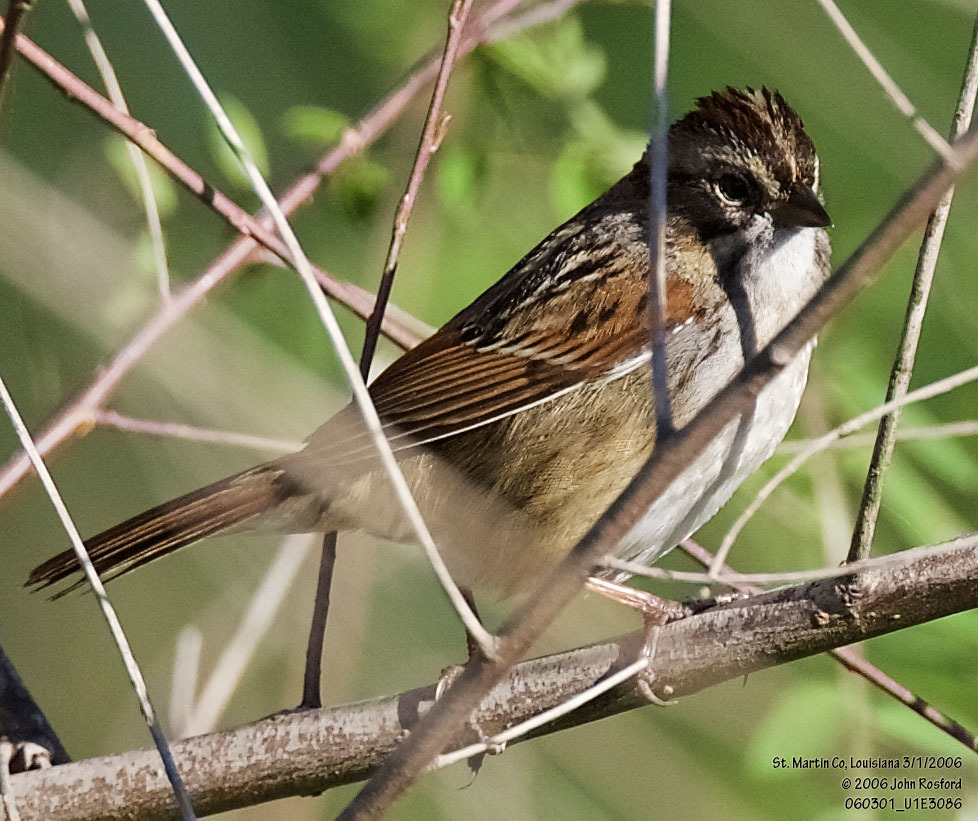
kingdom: Animalia
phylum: Chordata
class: Aves
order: Passeriformes
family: Passerellidae
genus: Melospiza
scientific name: Melospiza georgiana
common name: Swamp sparrow
